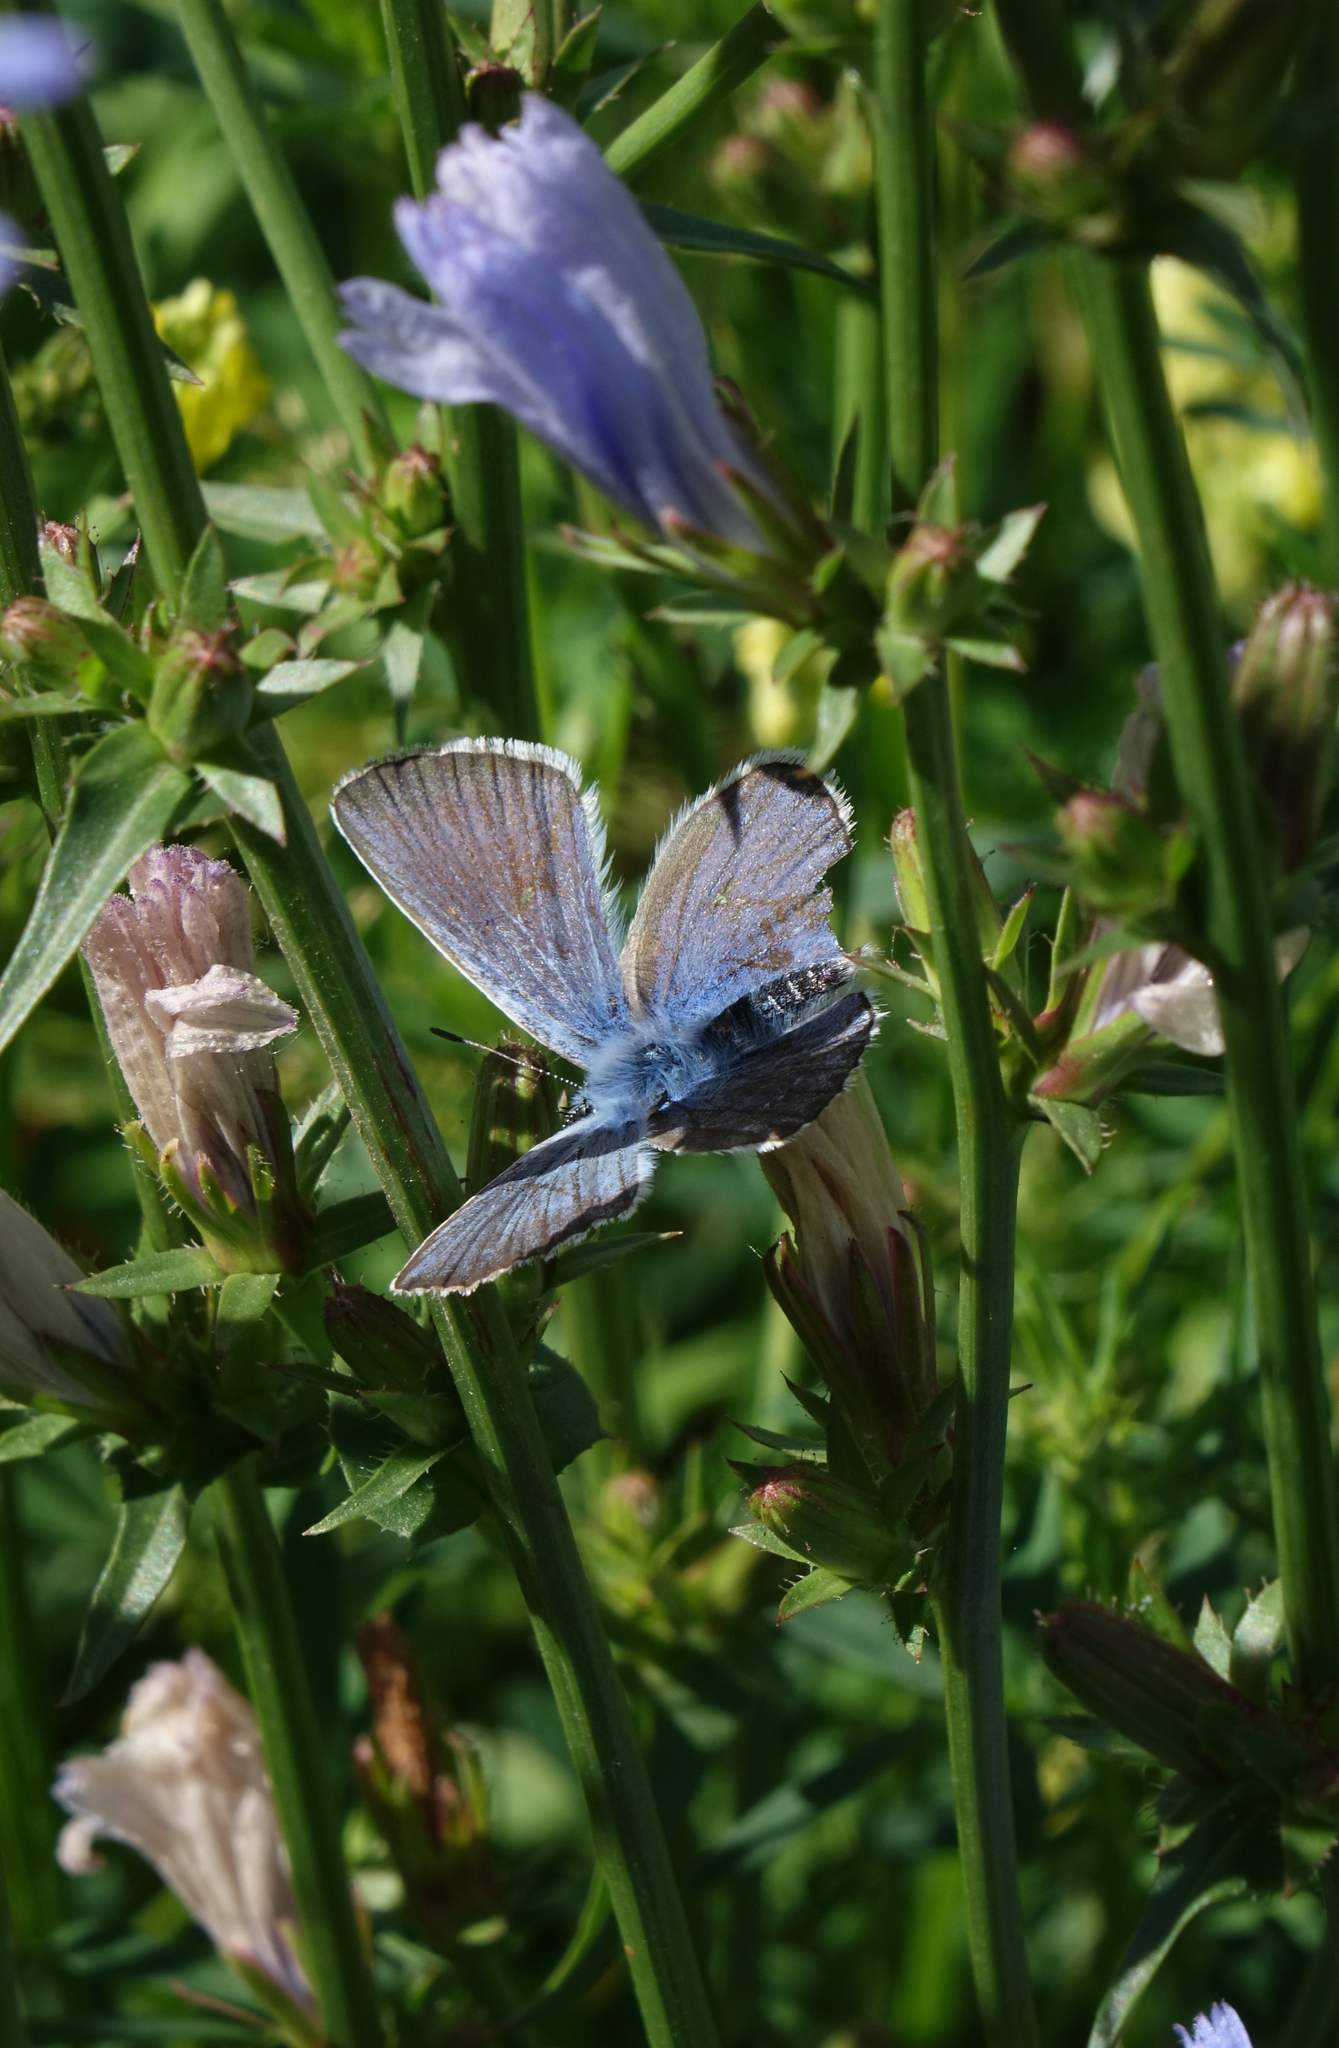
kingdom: Animalia
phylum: Arthropoda
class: Insecta
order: Lepidoptera
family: Lycaenidae
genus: Plebejus
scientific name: Plebejus amanda
